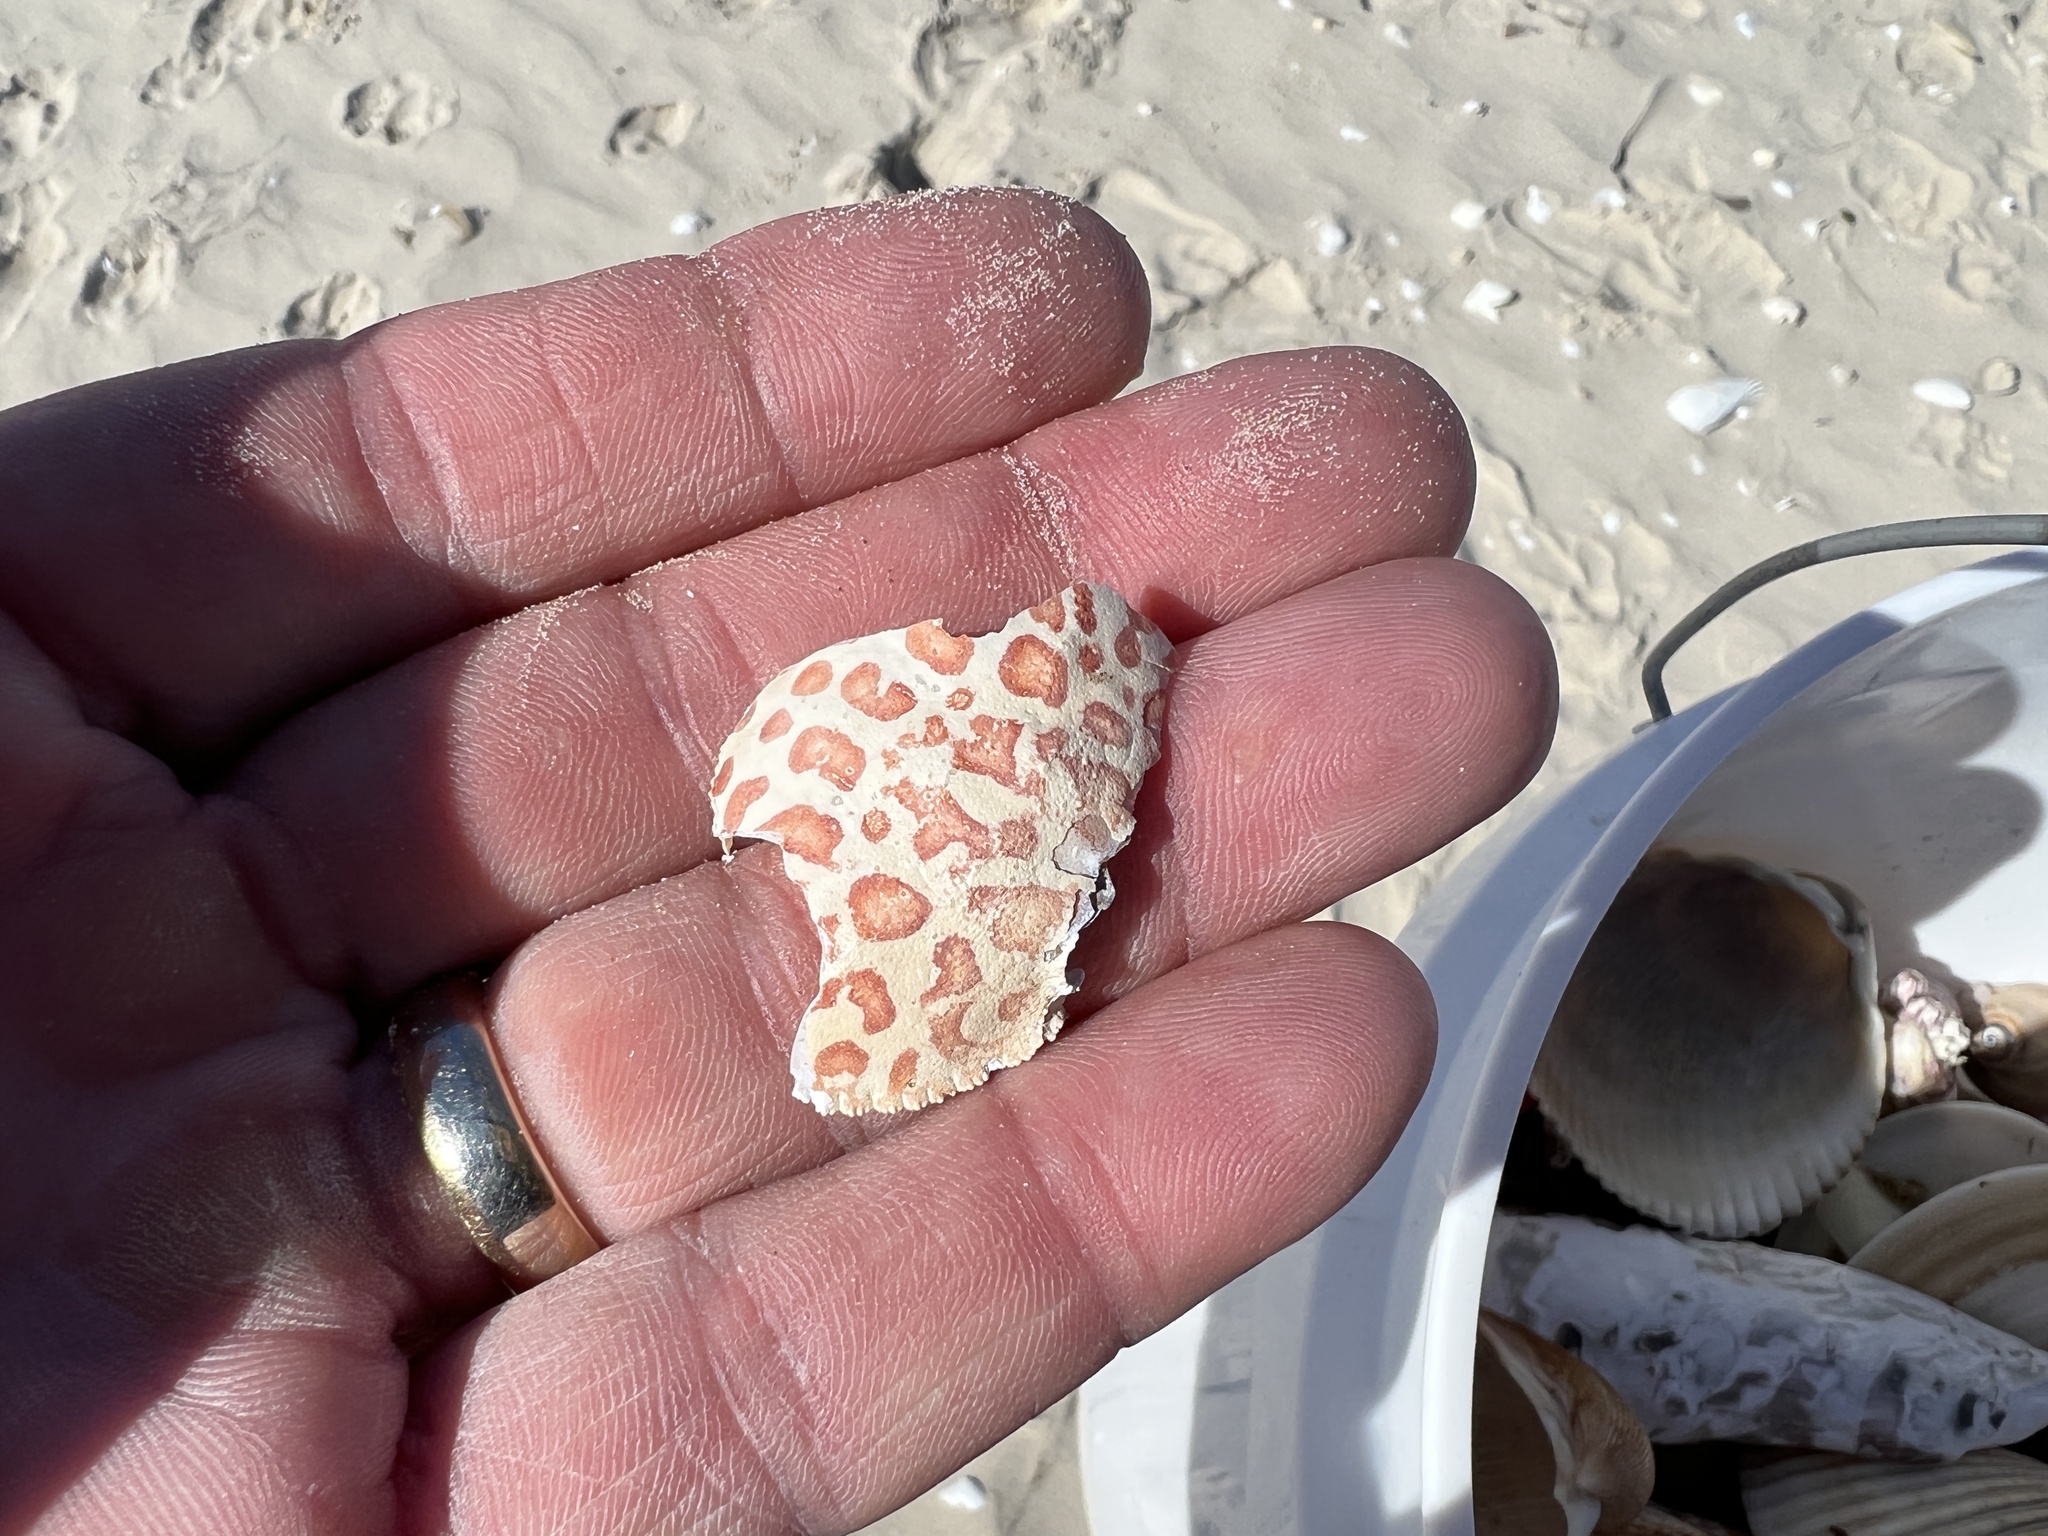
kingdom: Animalia
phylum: Arthropoda
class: Malacostraca
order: Decapoda
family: Aethridae
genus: Hepatus
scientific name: Hepatus epheliticus
